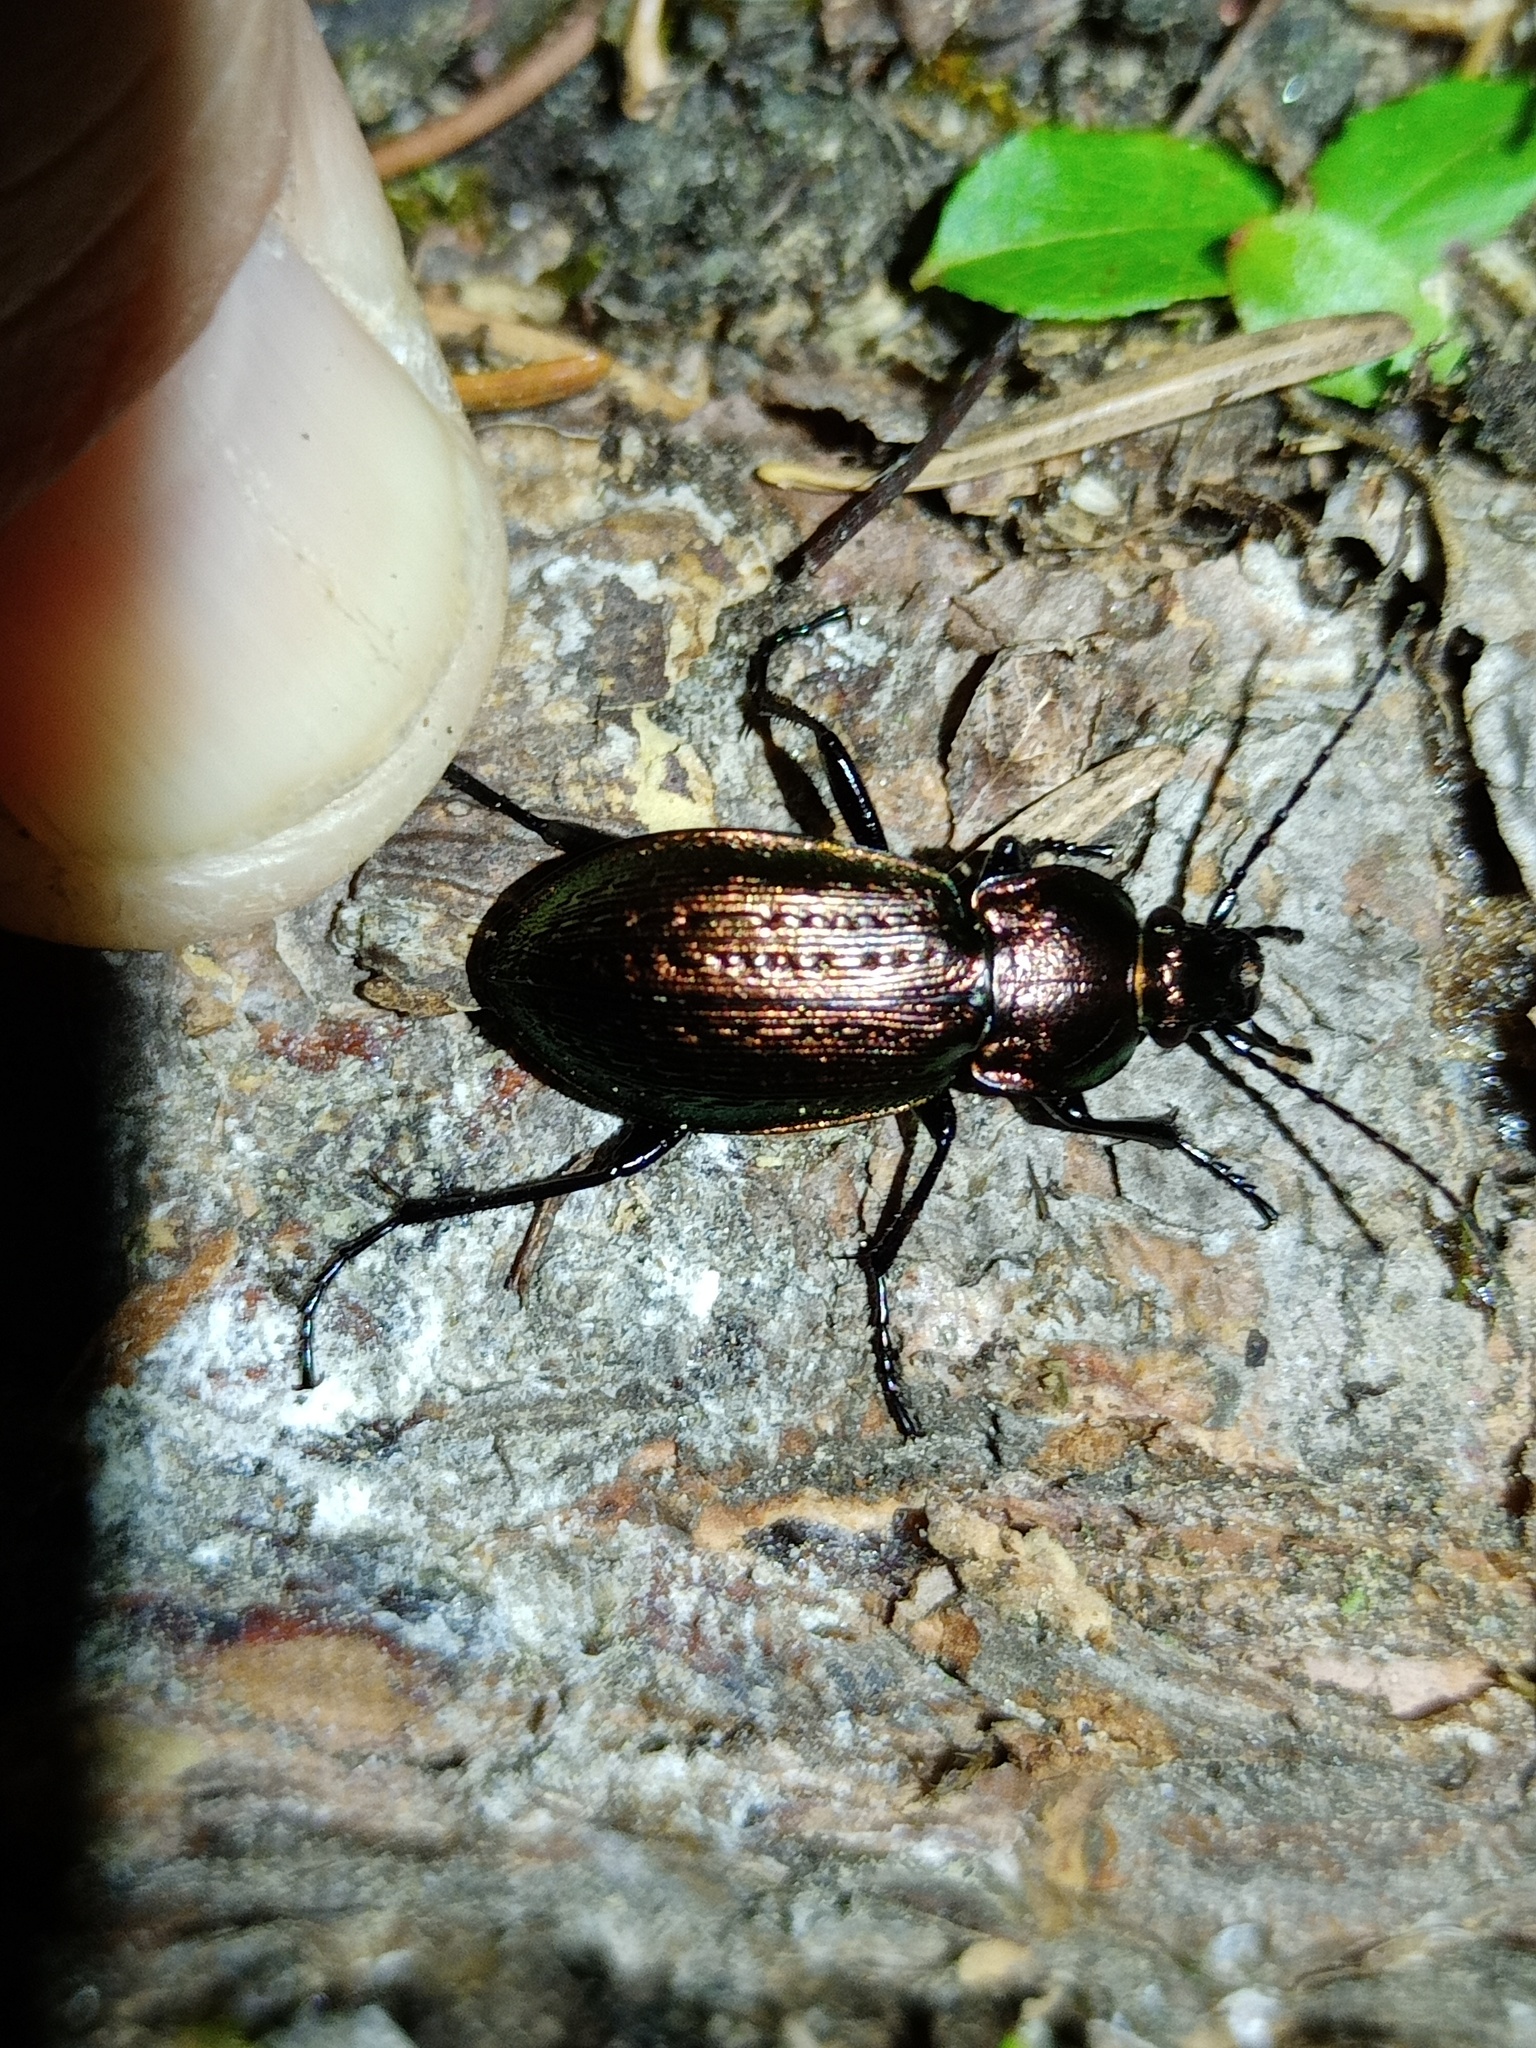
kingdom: Animalia
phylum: Arthropoda
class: Insecta
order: Coleoptera
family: Carabidae
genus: Carabus
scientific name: Carabus arvensis
